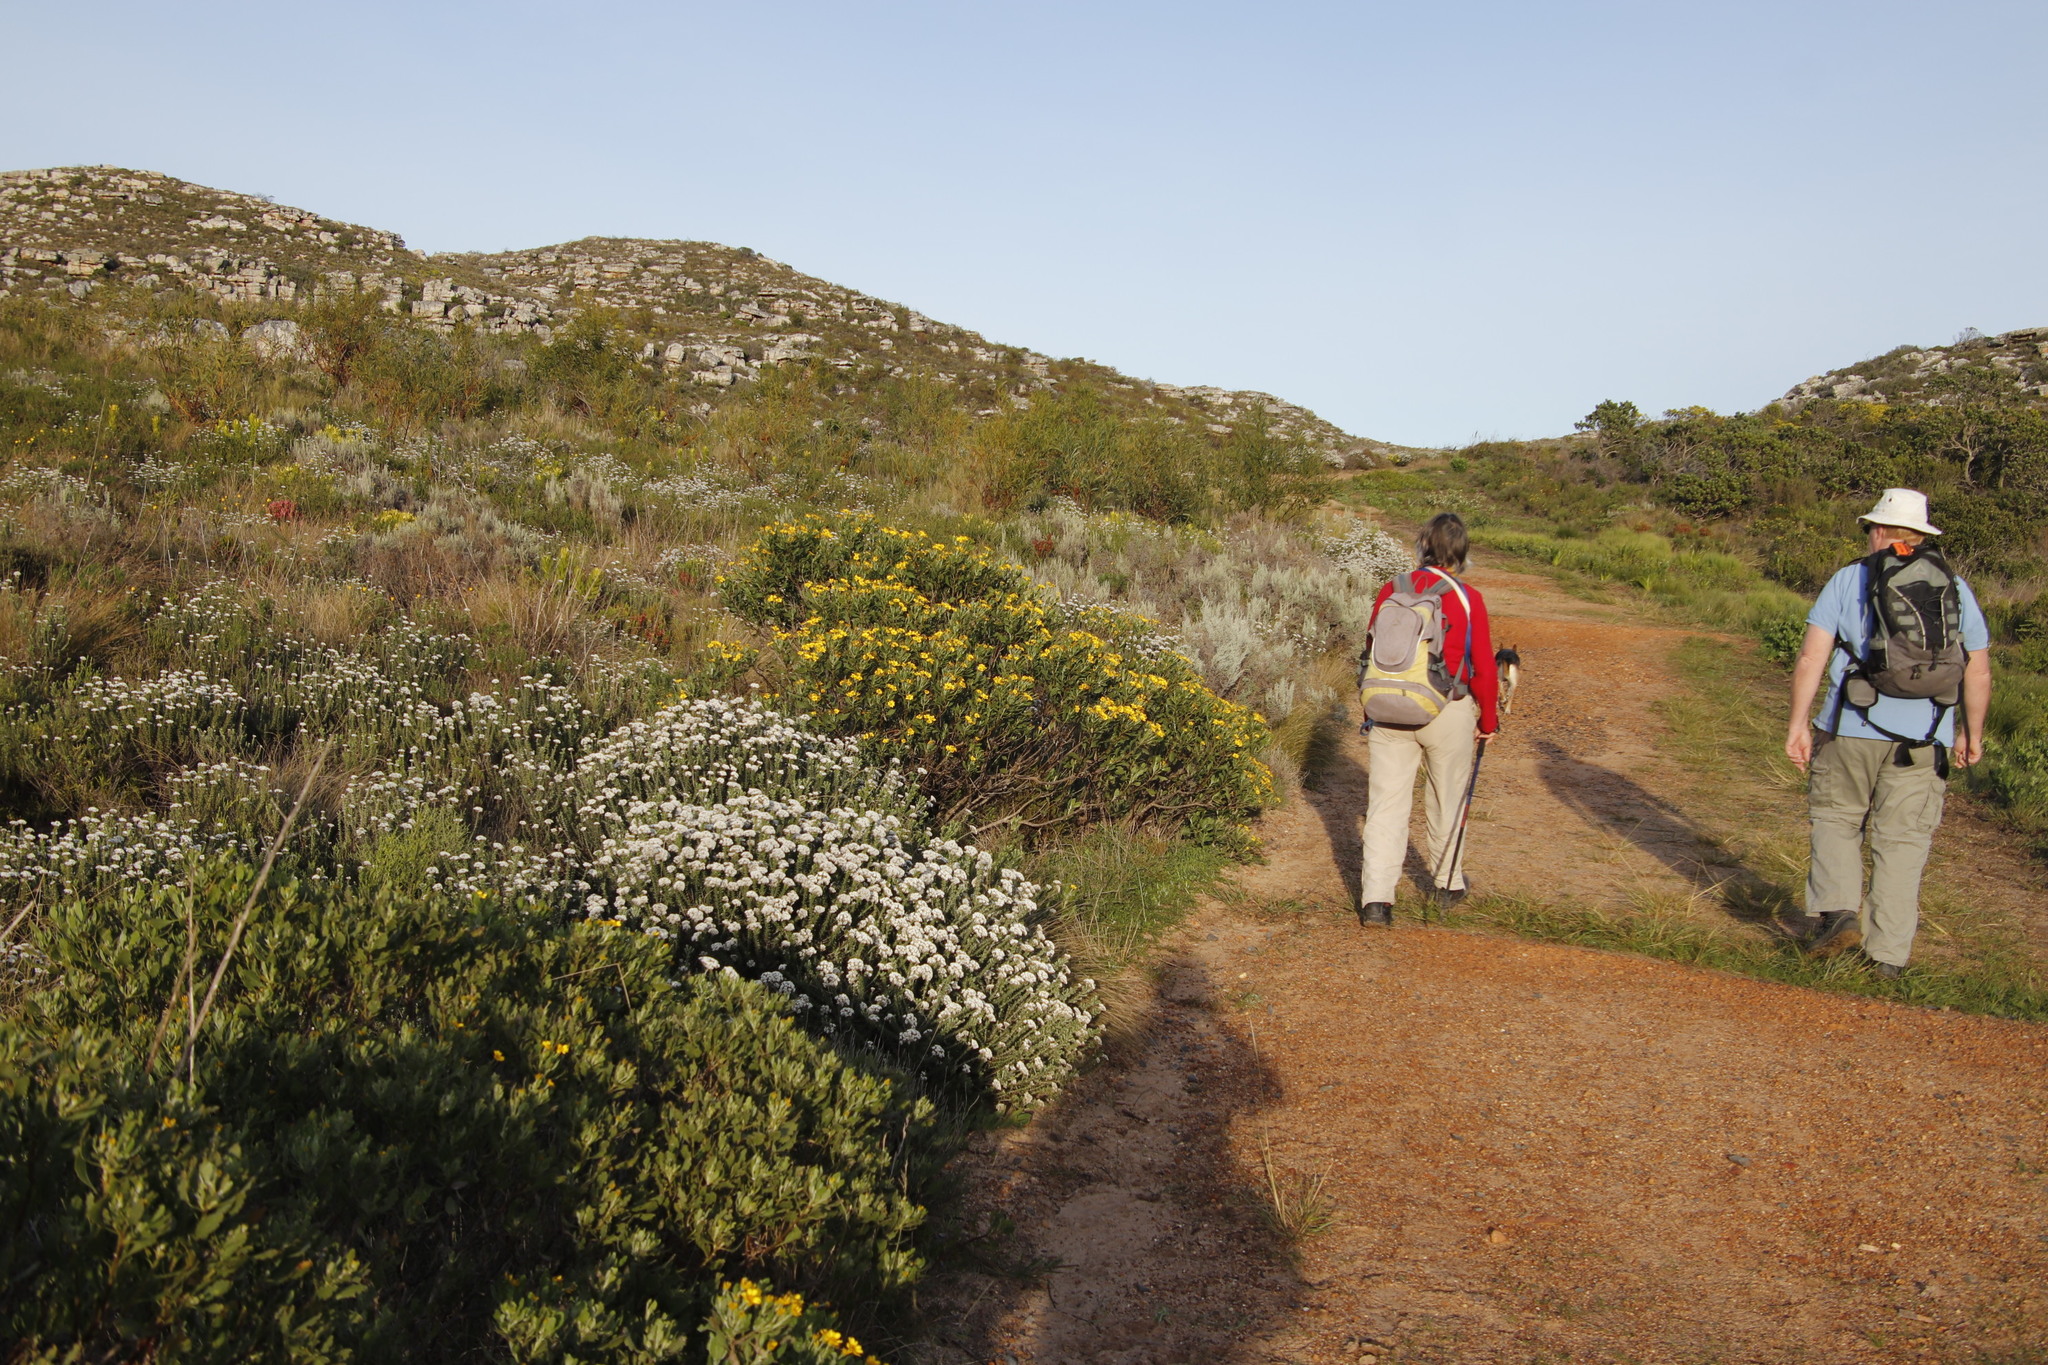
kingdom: Plantae
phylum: Tracheophyta
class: Magnoliopsida
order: Asterales
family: Asteraceae
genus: Osteospermum
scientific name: Osteospermum moniliferum
